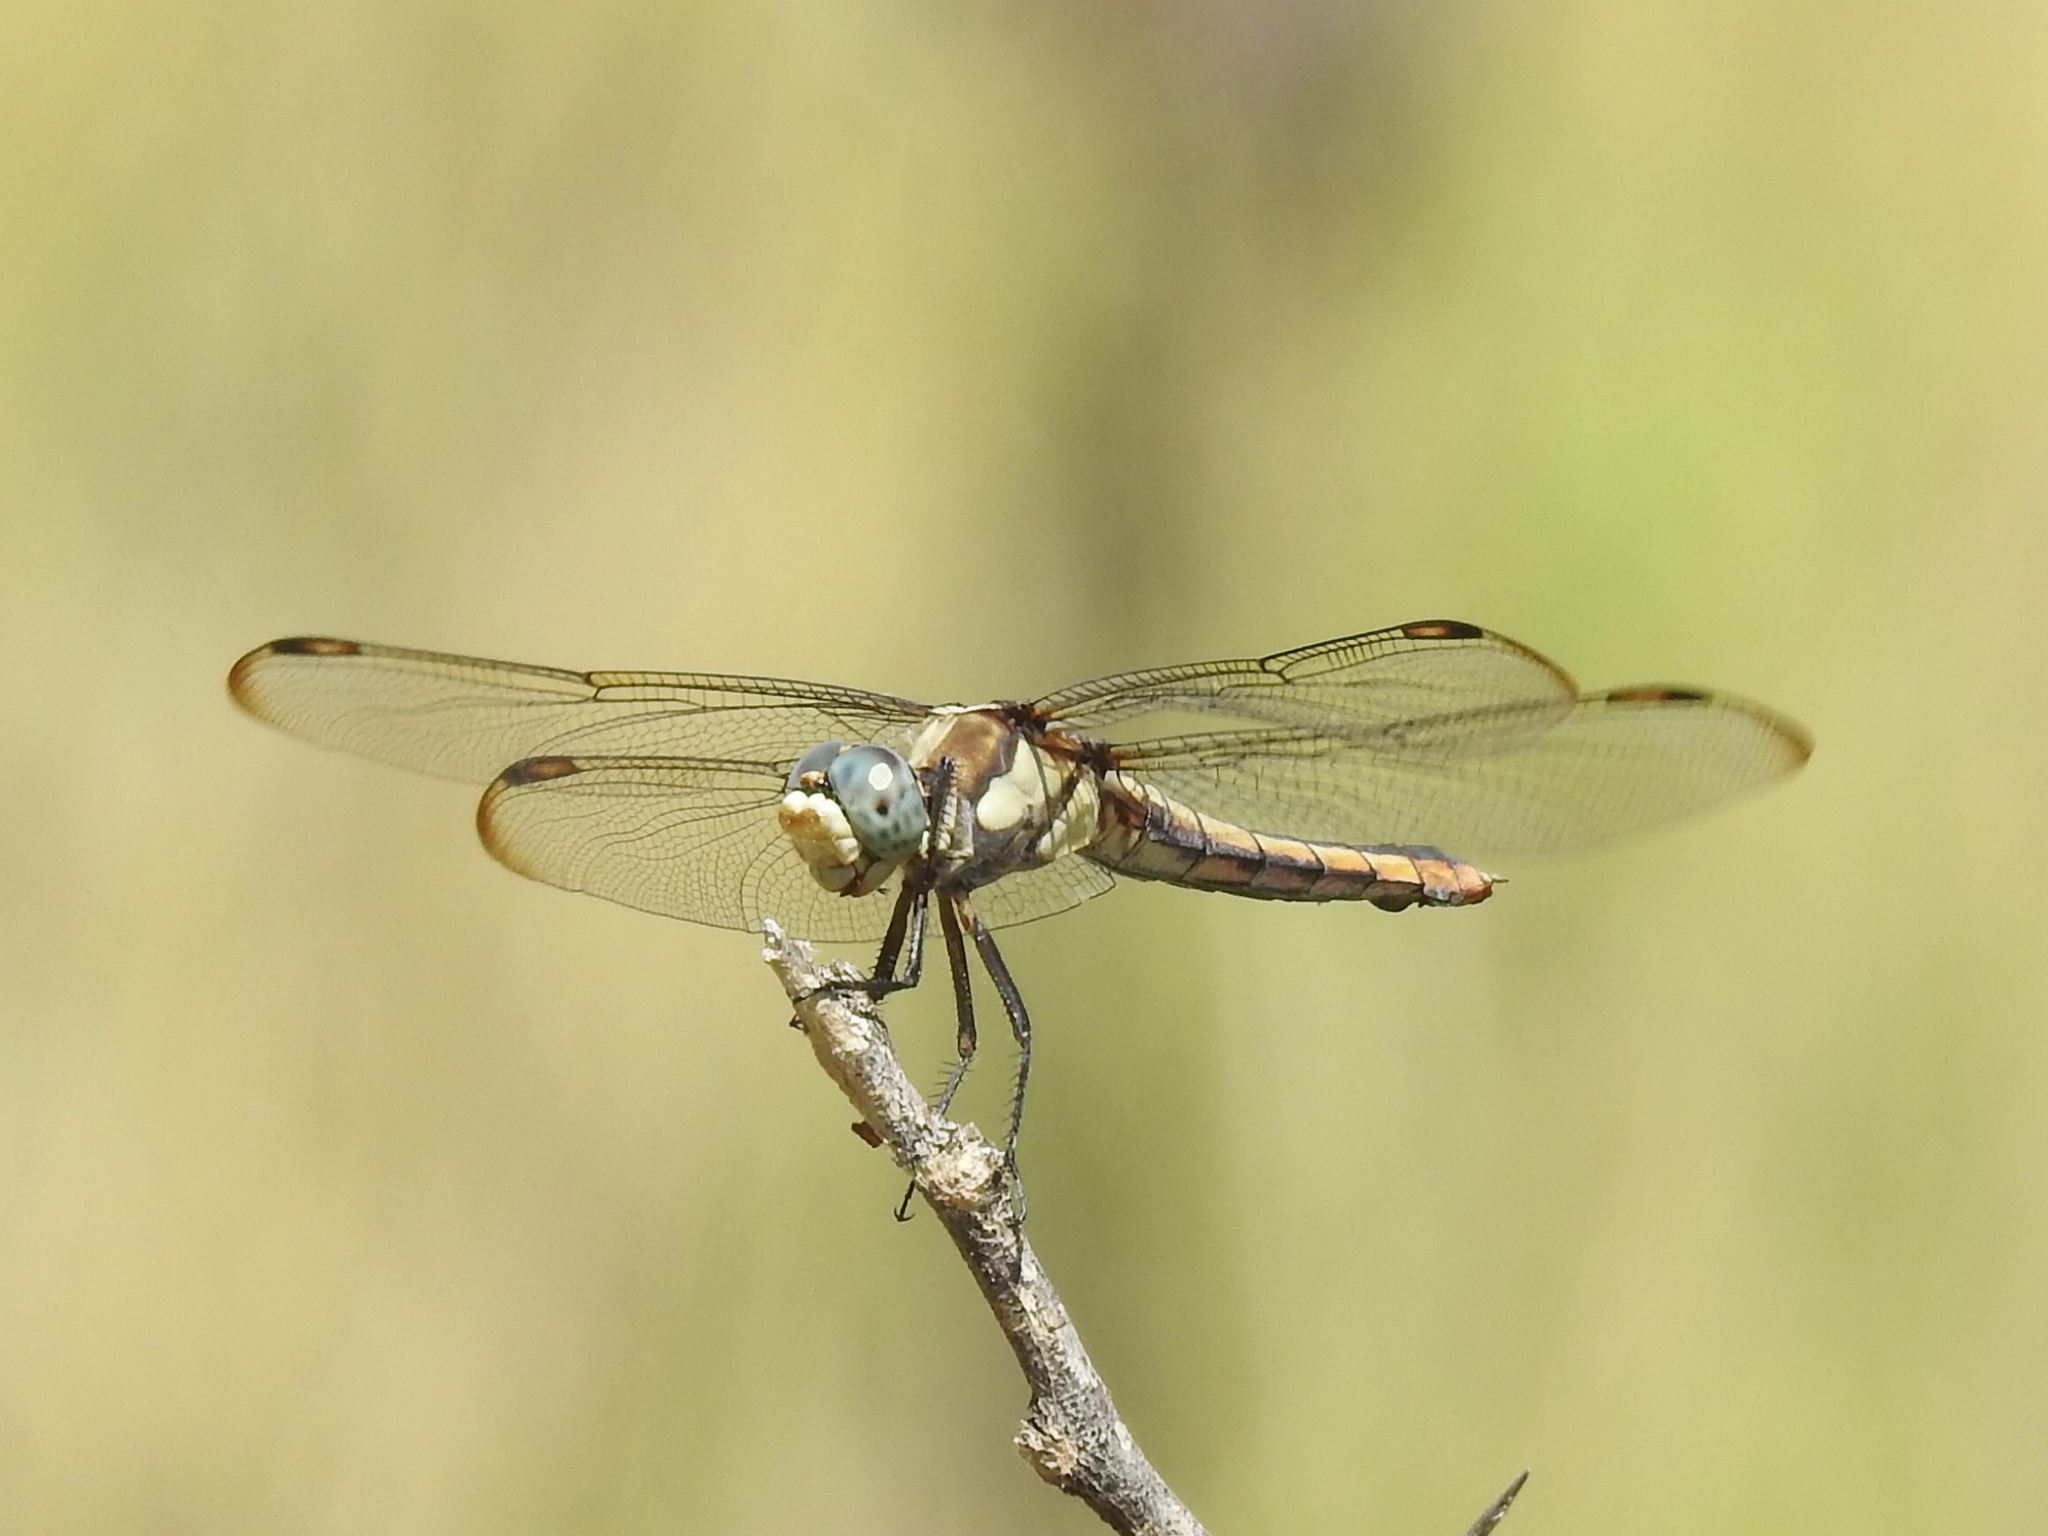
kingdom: Animalia
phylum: Arthropoda
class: Insecta
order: Odonata
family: Libellulidae
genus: Libellula
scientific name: Libellula comanche
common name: Comanche skimmer
